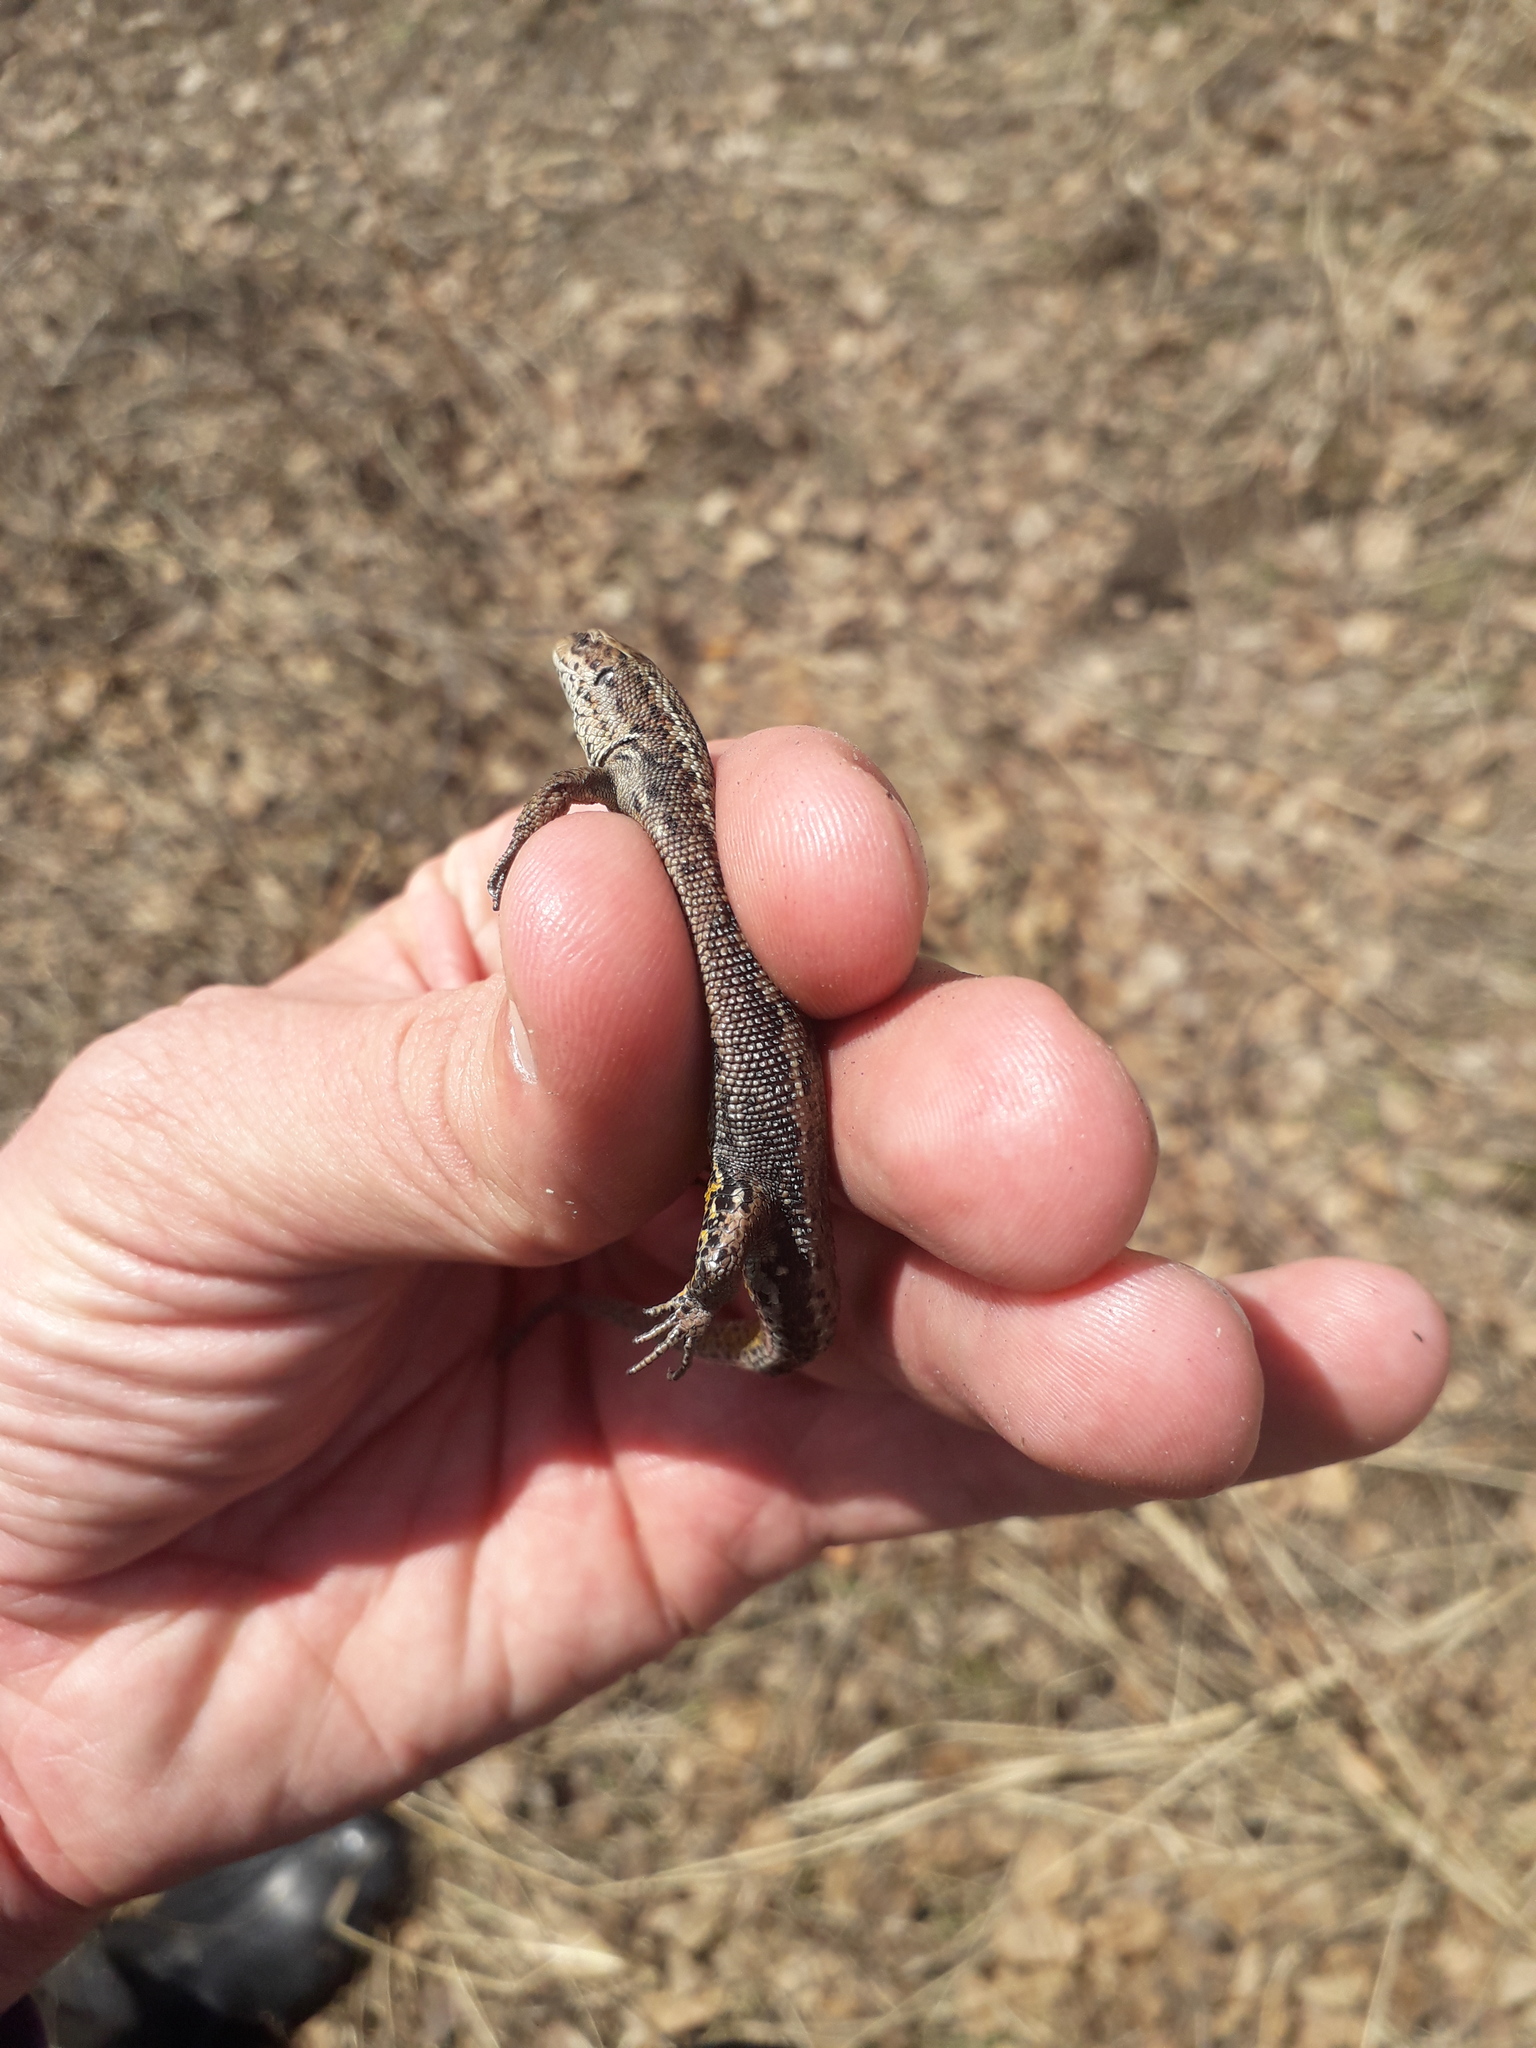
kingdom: Animalia
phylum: Chordata
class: Squamata
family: Lacertidae
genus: Zootoca
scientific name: Zootoca vivipara
